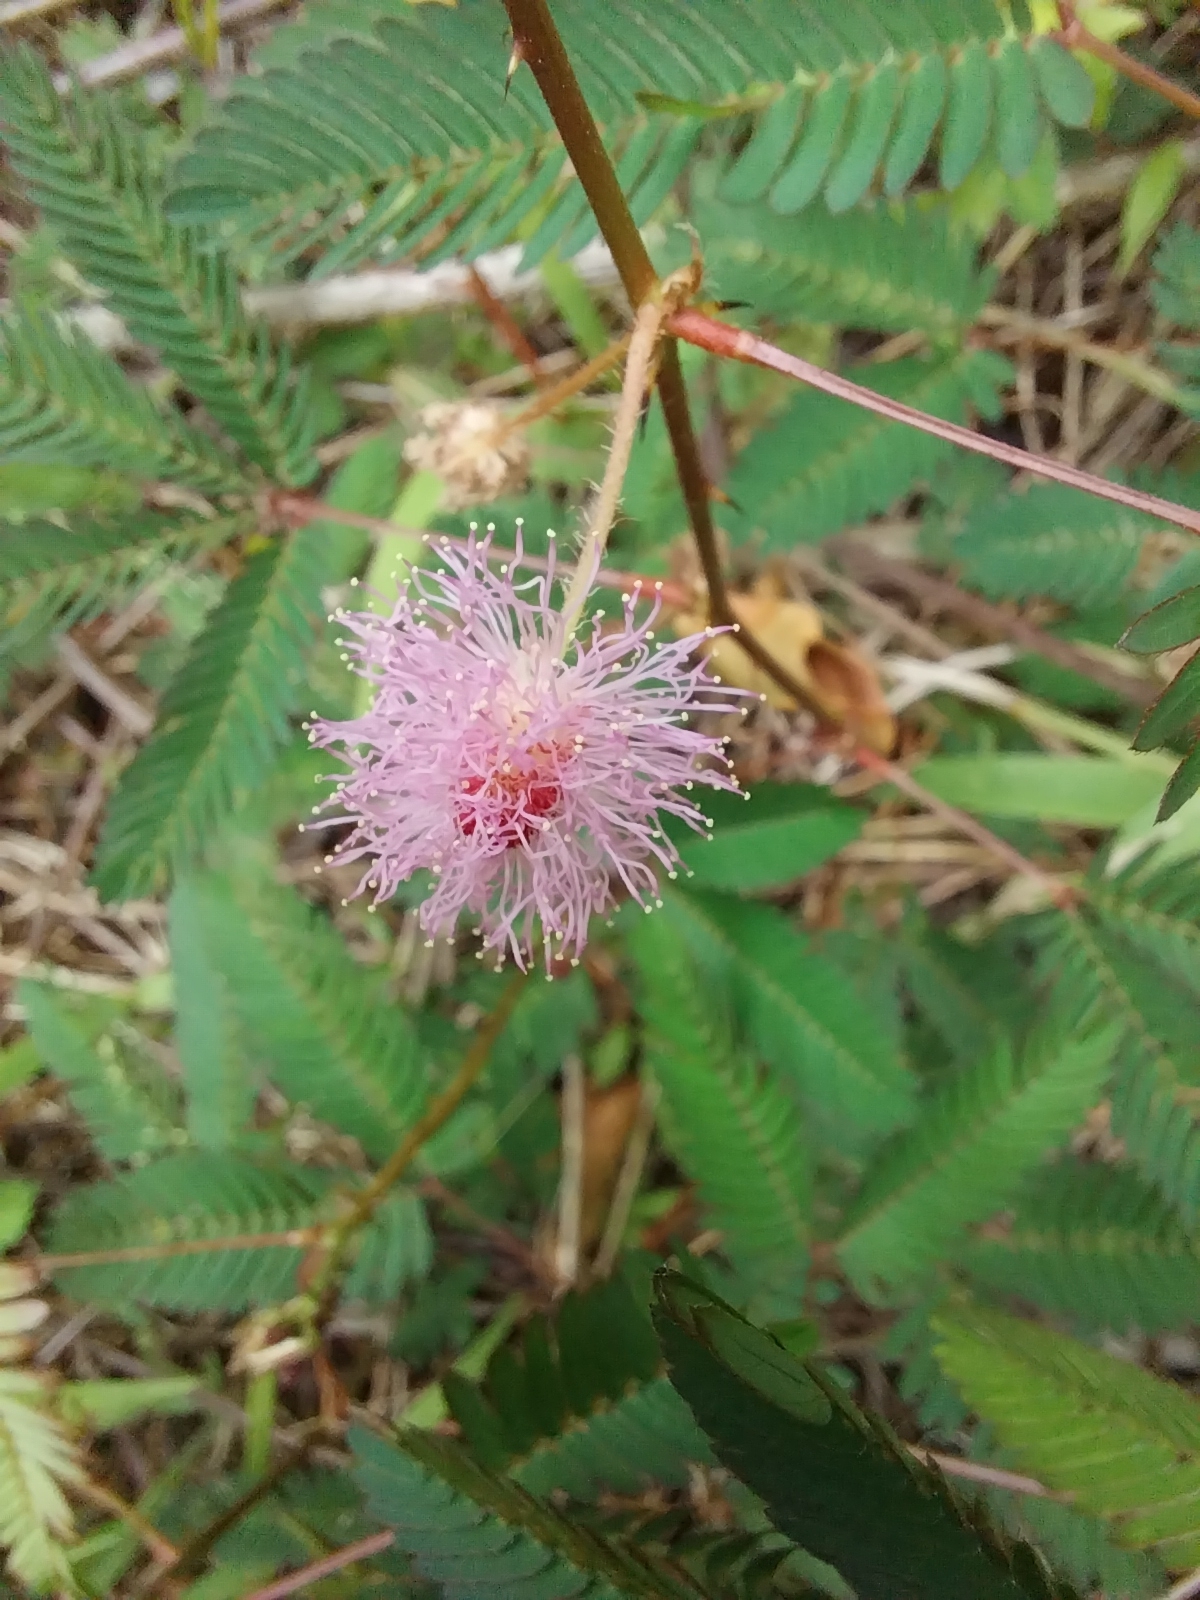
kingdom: Plantae
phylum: Tracheophyta
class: Magnoliopsida
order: Fabales
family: Fabaceae
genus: Mimosa
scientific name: Mimosa pudica
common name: Sensitive plant
